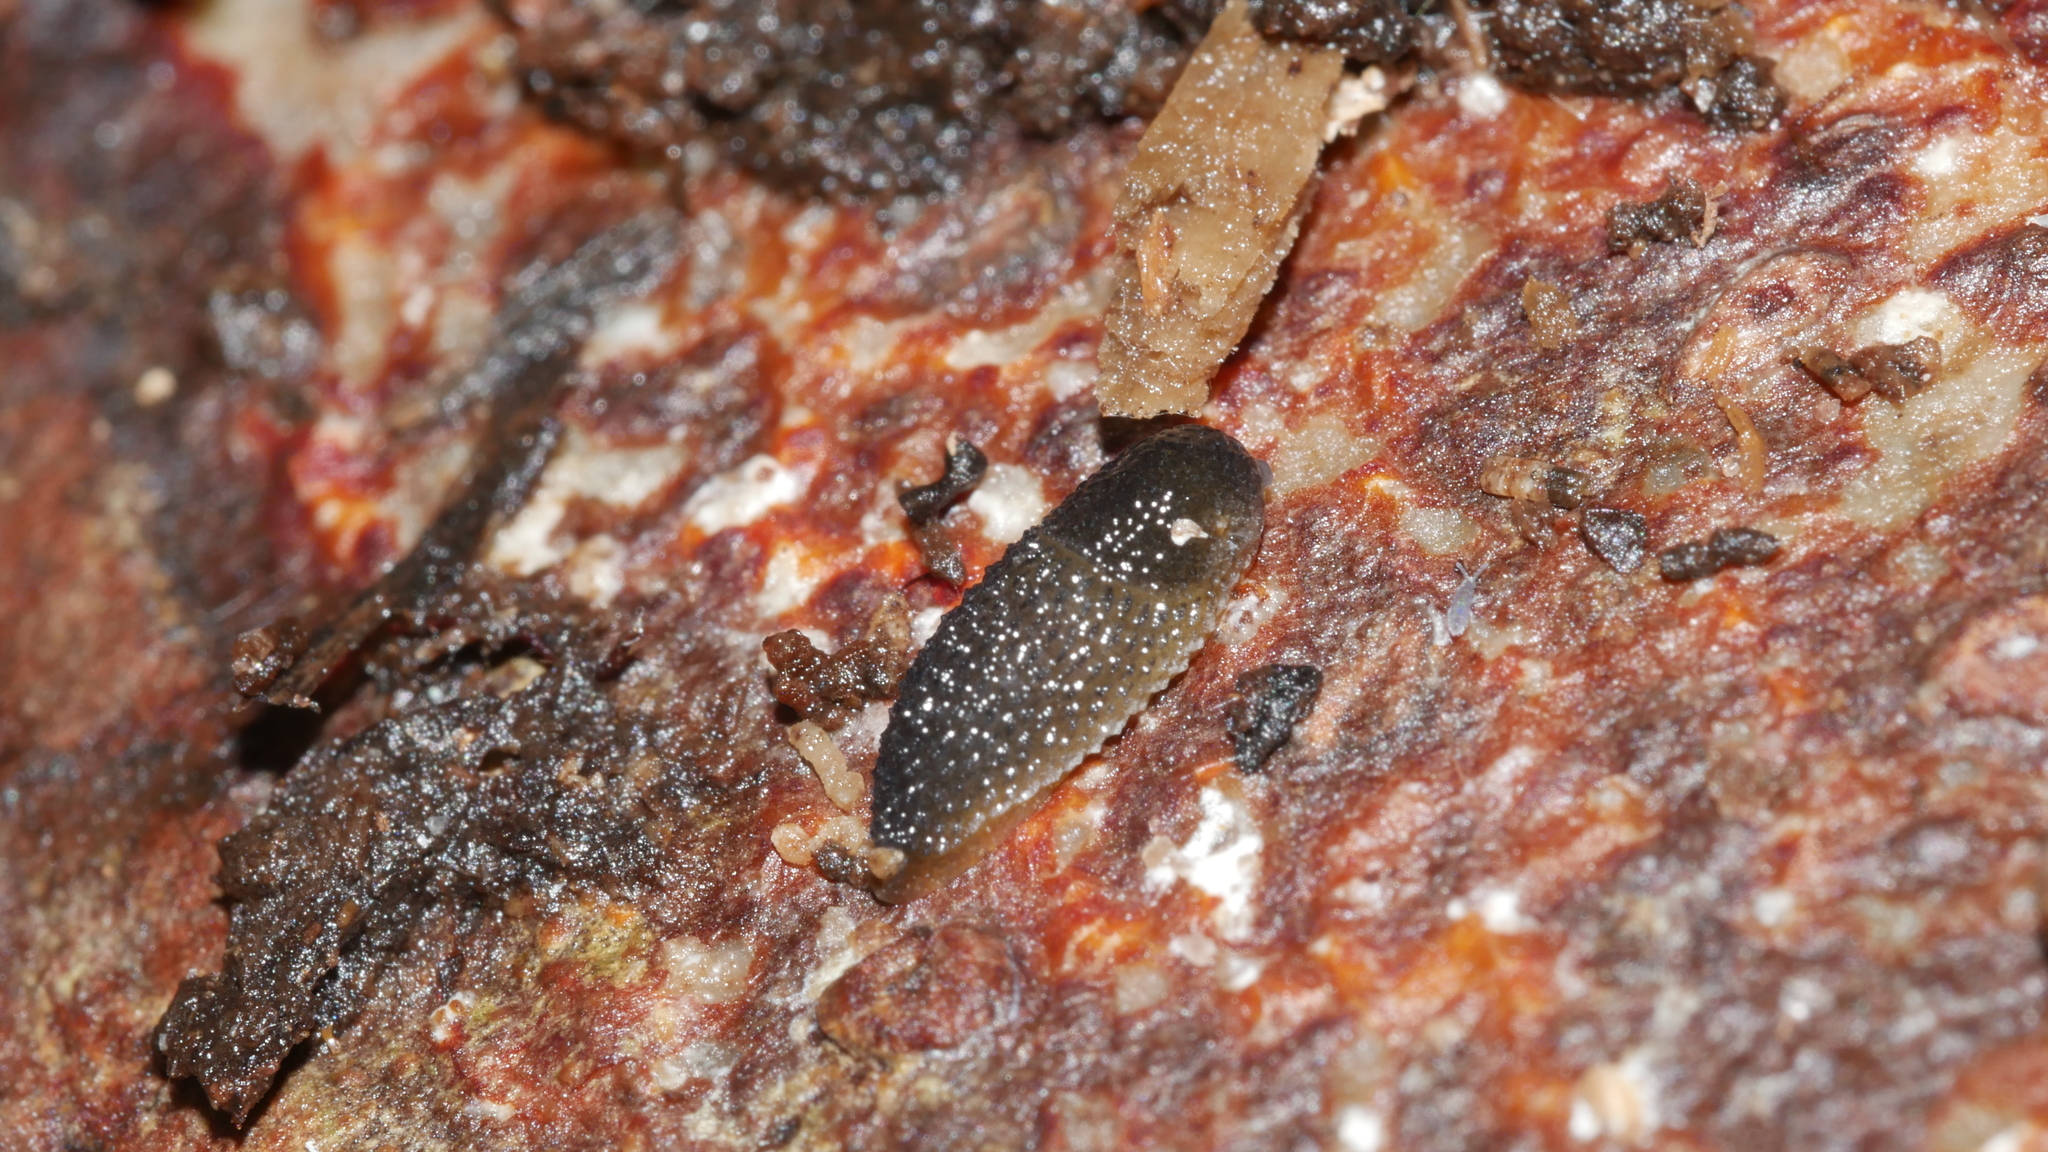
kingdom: Animalia
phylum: Mollusca
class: Gastropoda
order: Stylommatophora
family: Arionidae
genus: Arion
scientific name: Arion intermedius
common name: Hedgehog slug
